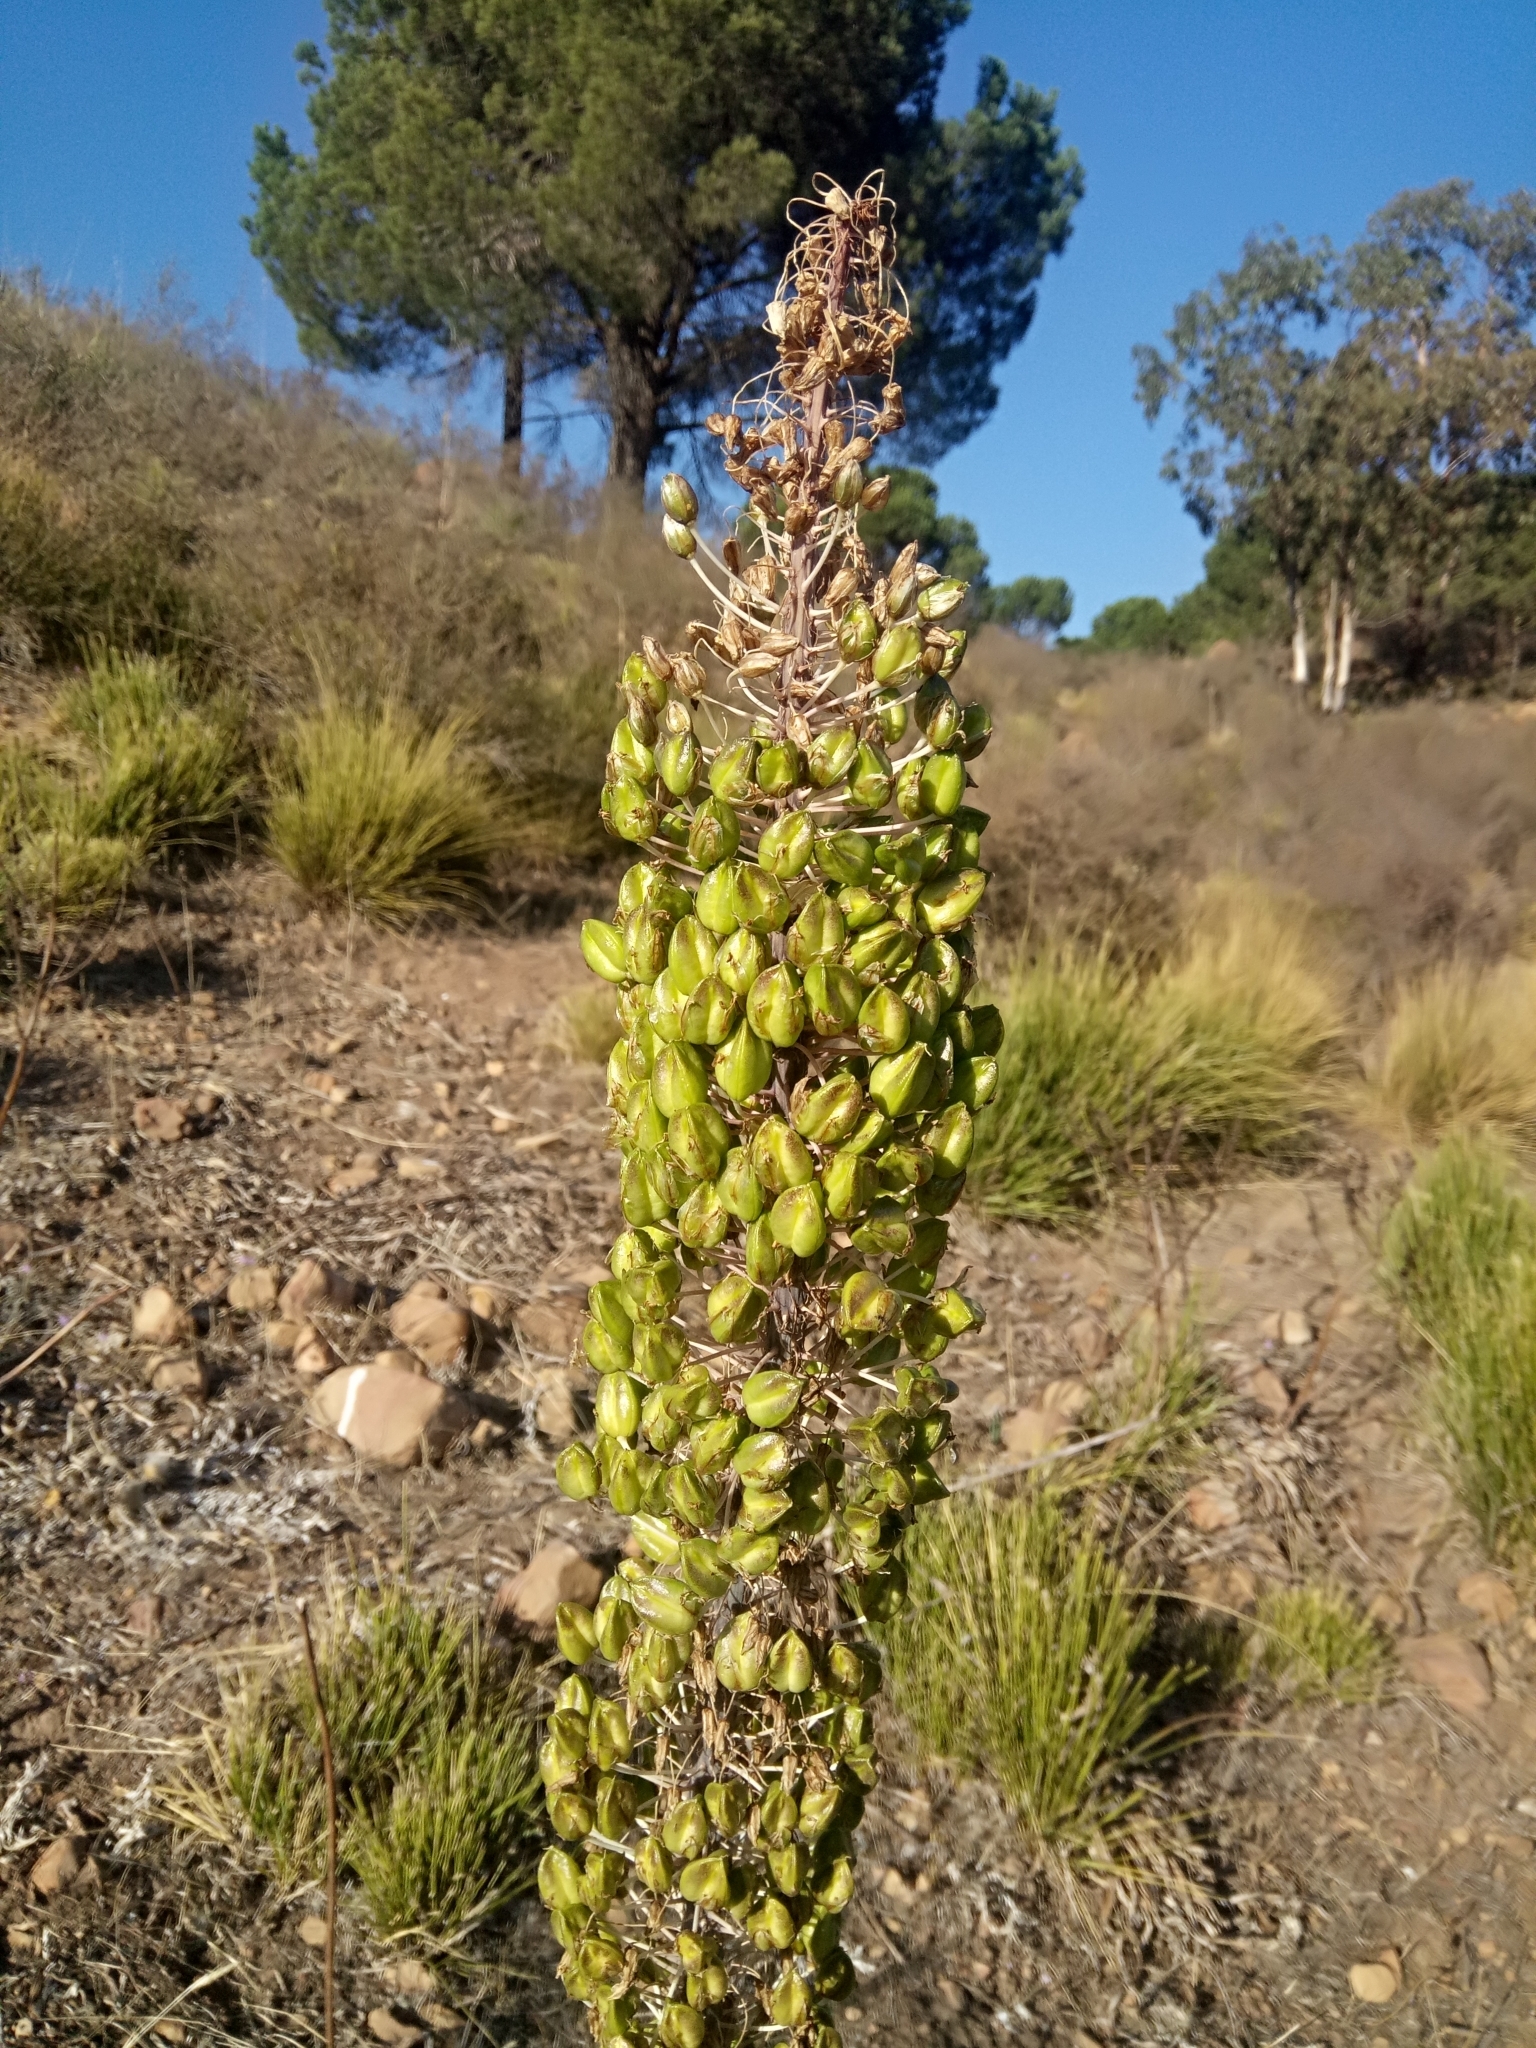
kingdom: Plantae
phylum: Tracheophyta
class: Liliopsida
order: Asparagales
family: Asparagaceae
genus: Drimia
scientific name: Drimia numidica
